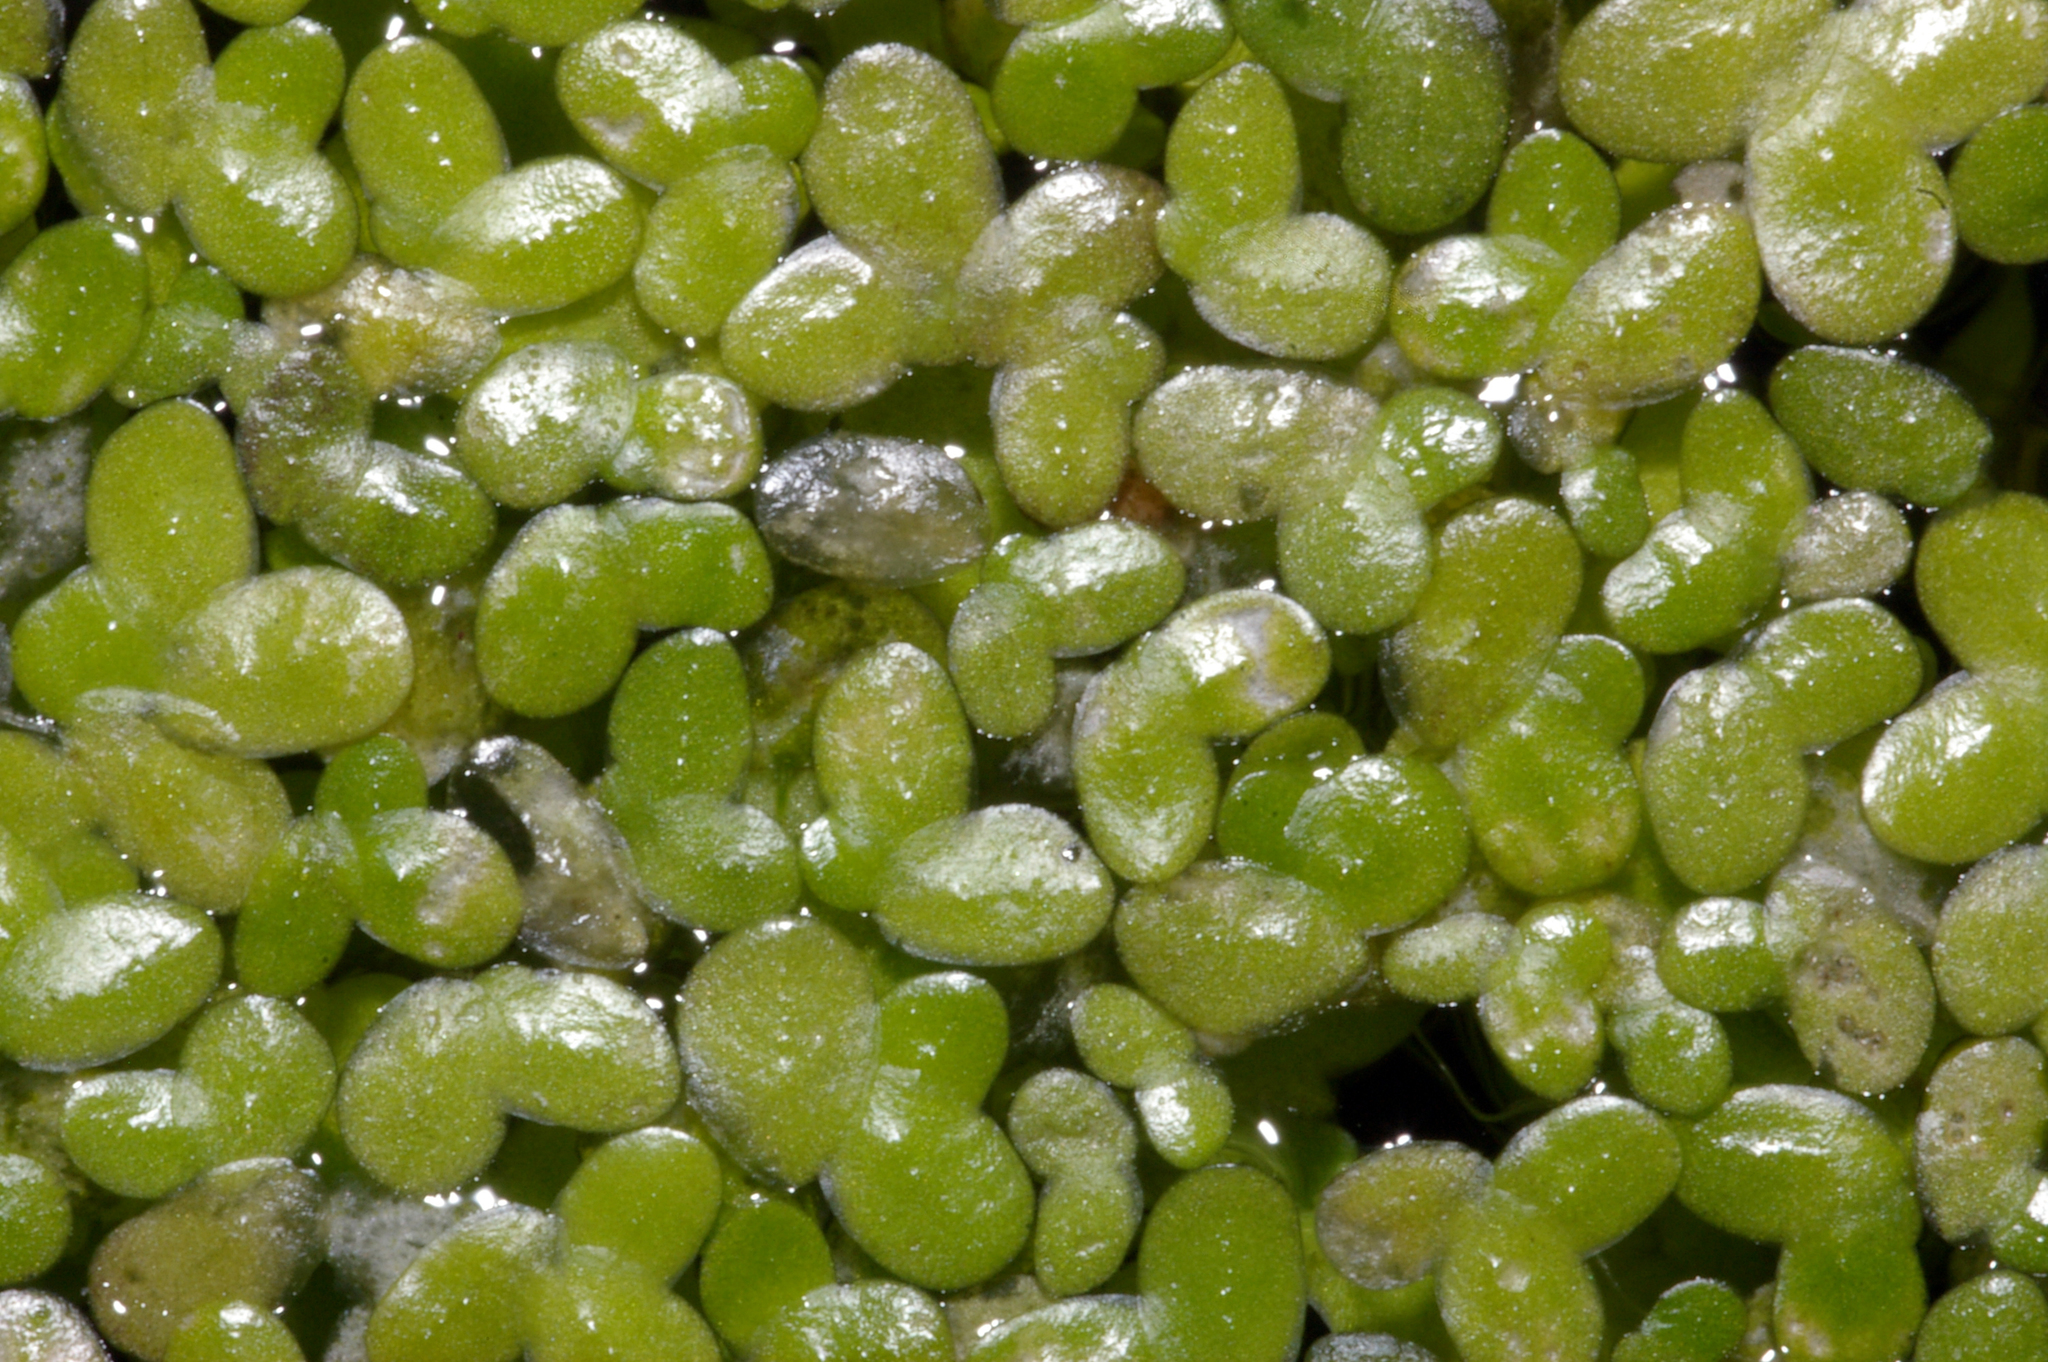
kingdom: Plantae
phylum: Tracheophyta
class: Liliopsida
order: Alismatales
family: Araceae
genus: Lemna
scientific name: Lemna minor
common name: Common duckweed
